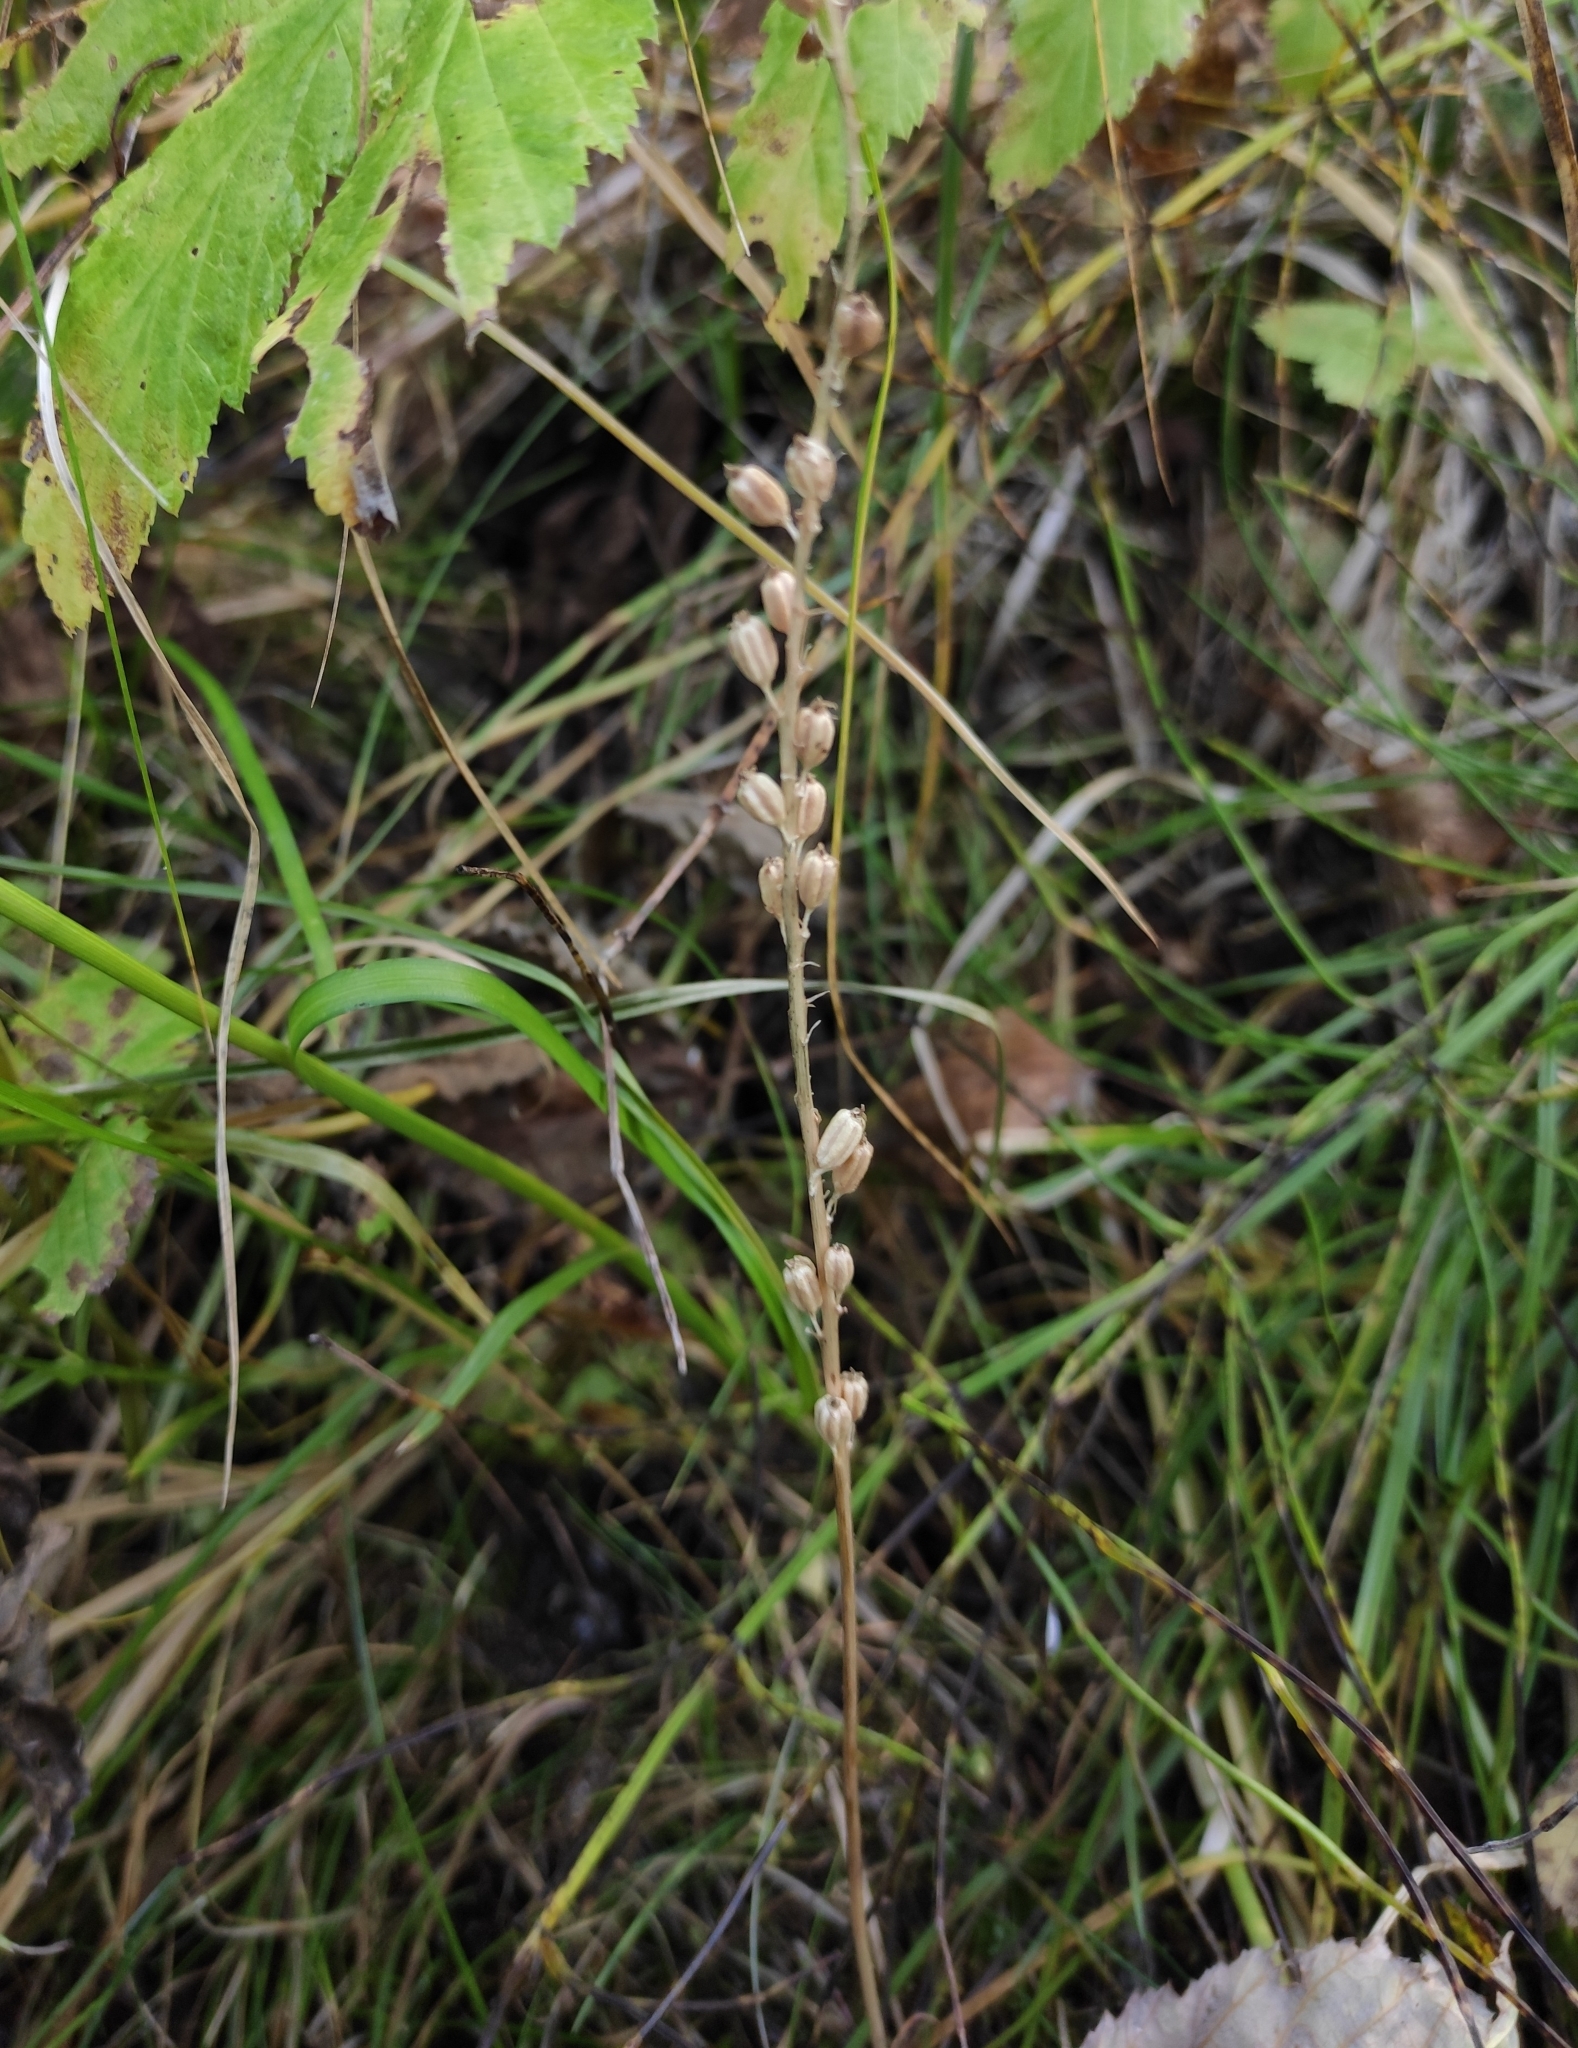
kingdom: Plantae
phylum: Tracheophyta
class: Liliopsida
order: Asparagales
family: Orchidaceae
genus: Malaxis
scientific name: Malaxis monophyllos
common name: White adder's-mouth
